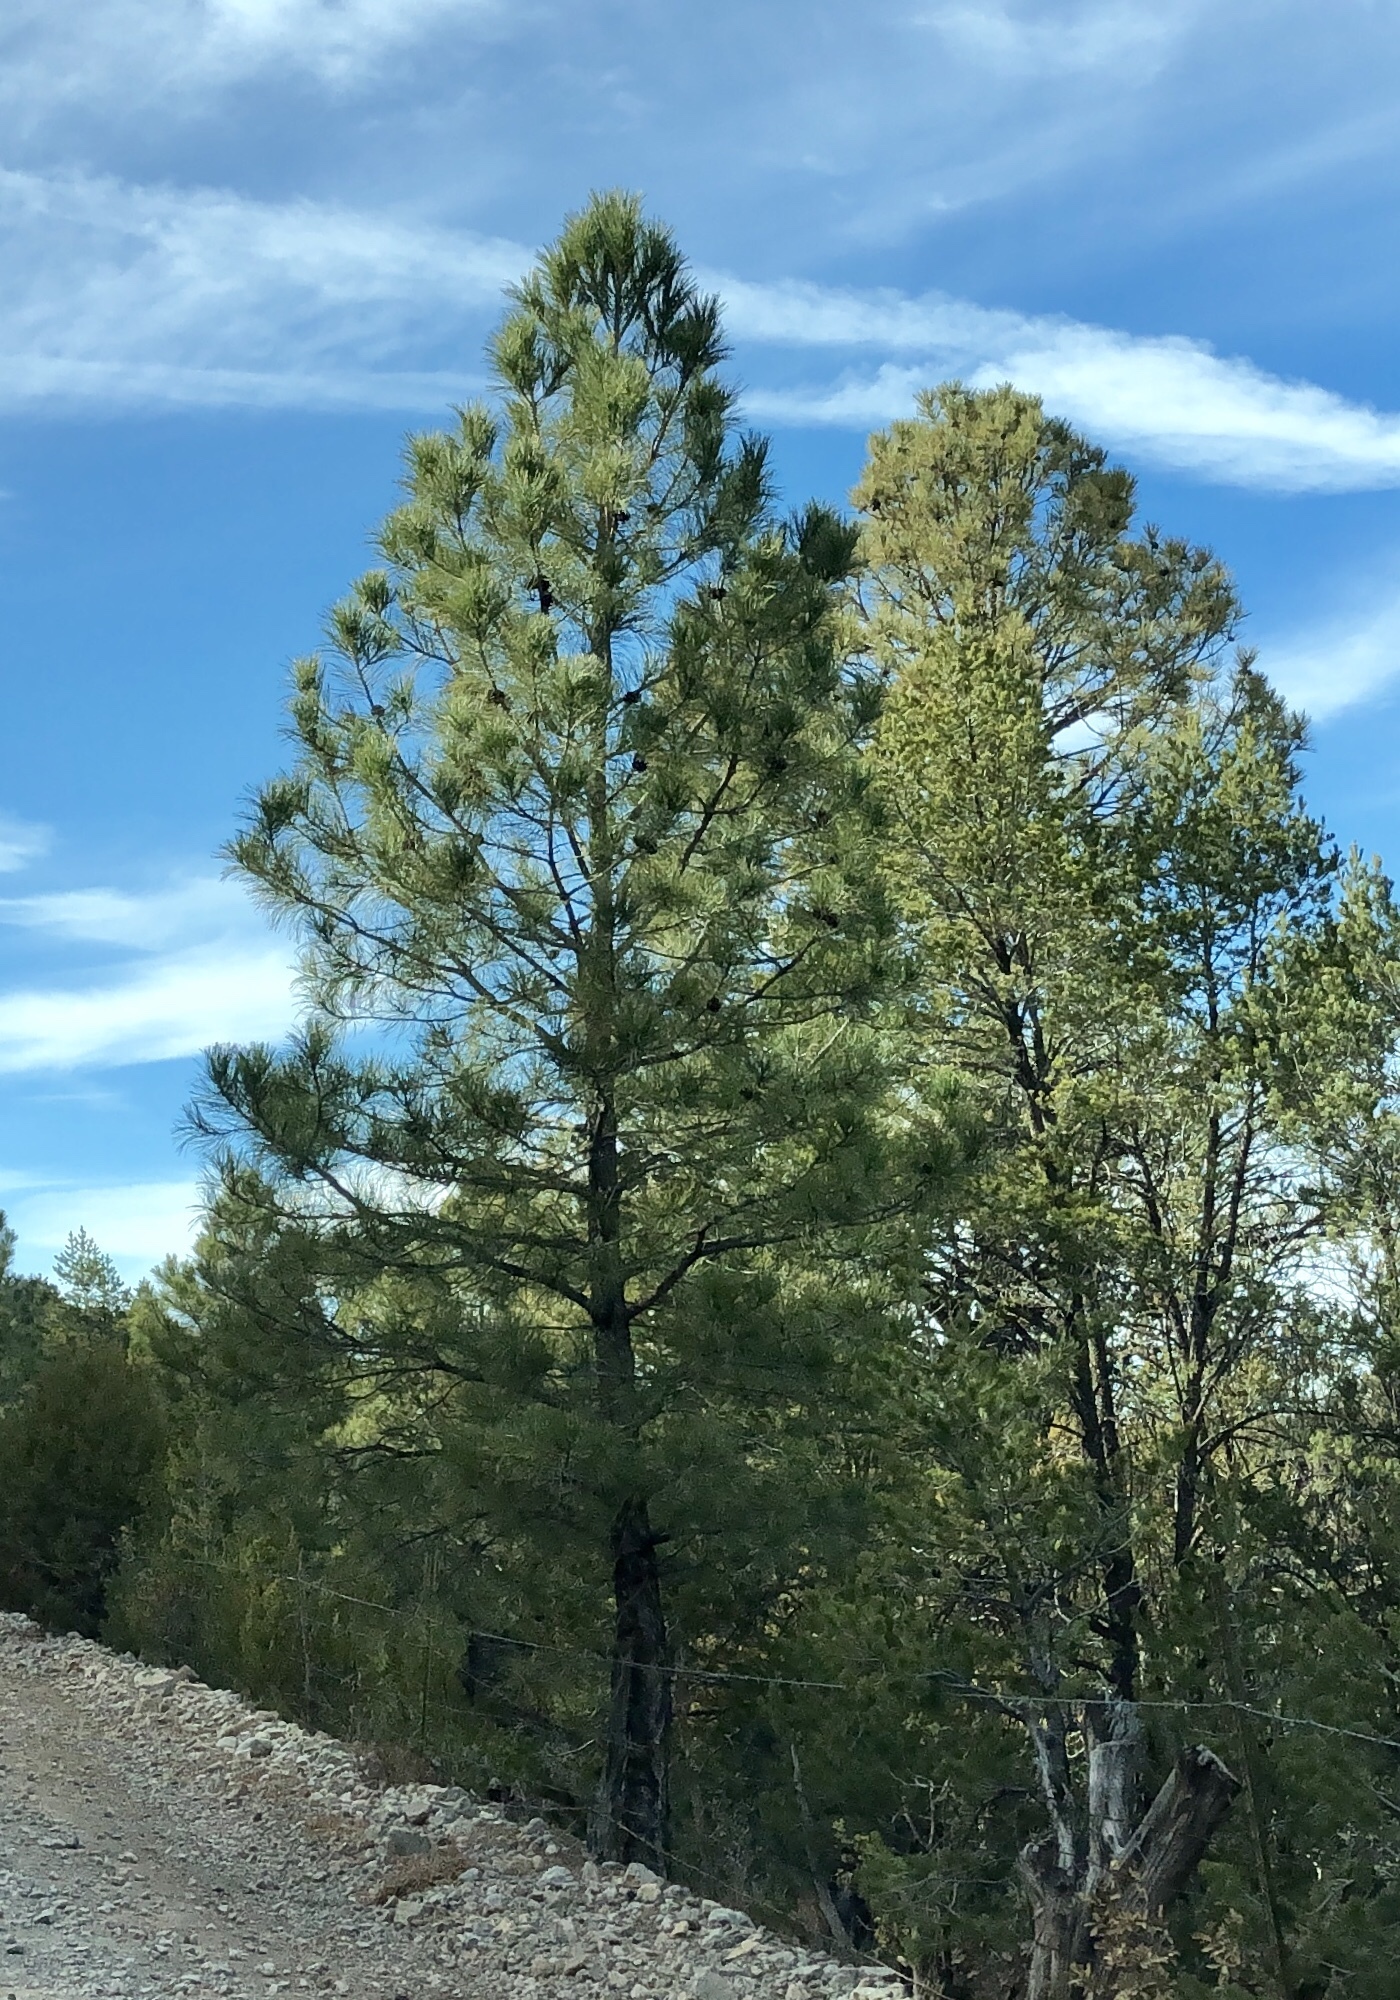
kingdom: Plantae
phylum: Tracheophyta
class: Pinopsida
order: Pinales
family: Pinaceae
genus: Pinus
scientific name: Pinus ponderosa
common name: Western yellow-pine
